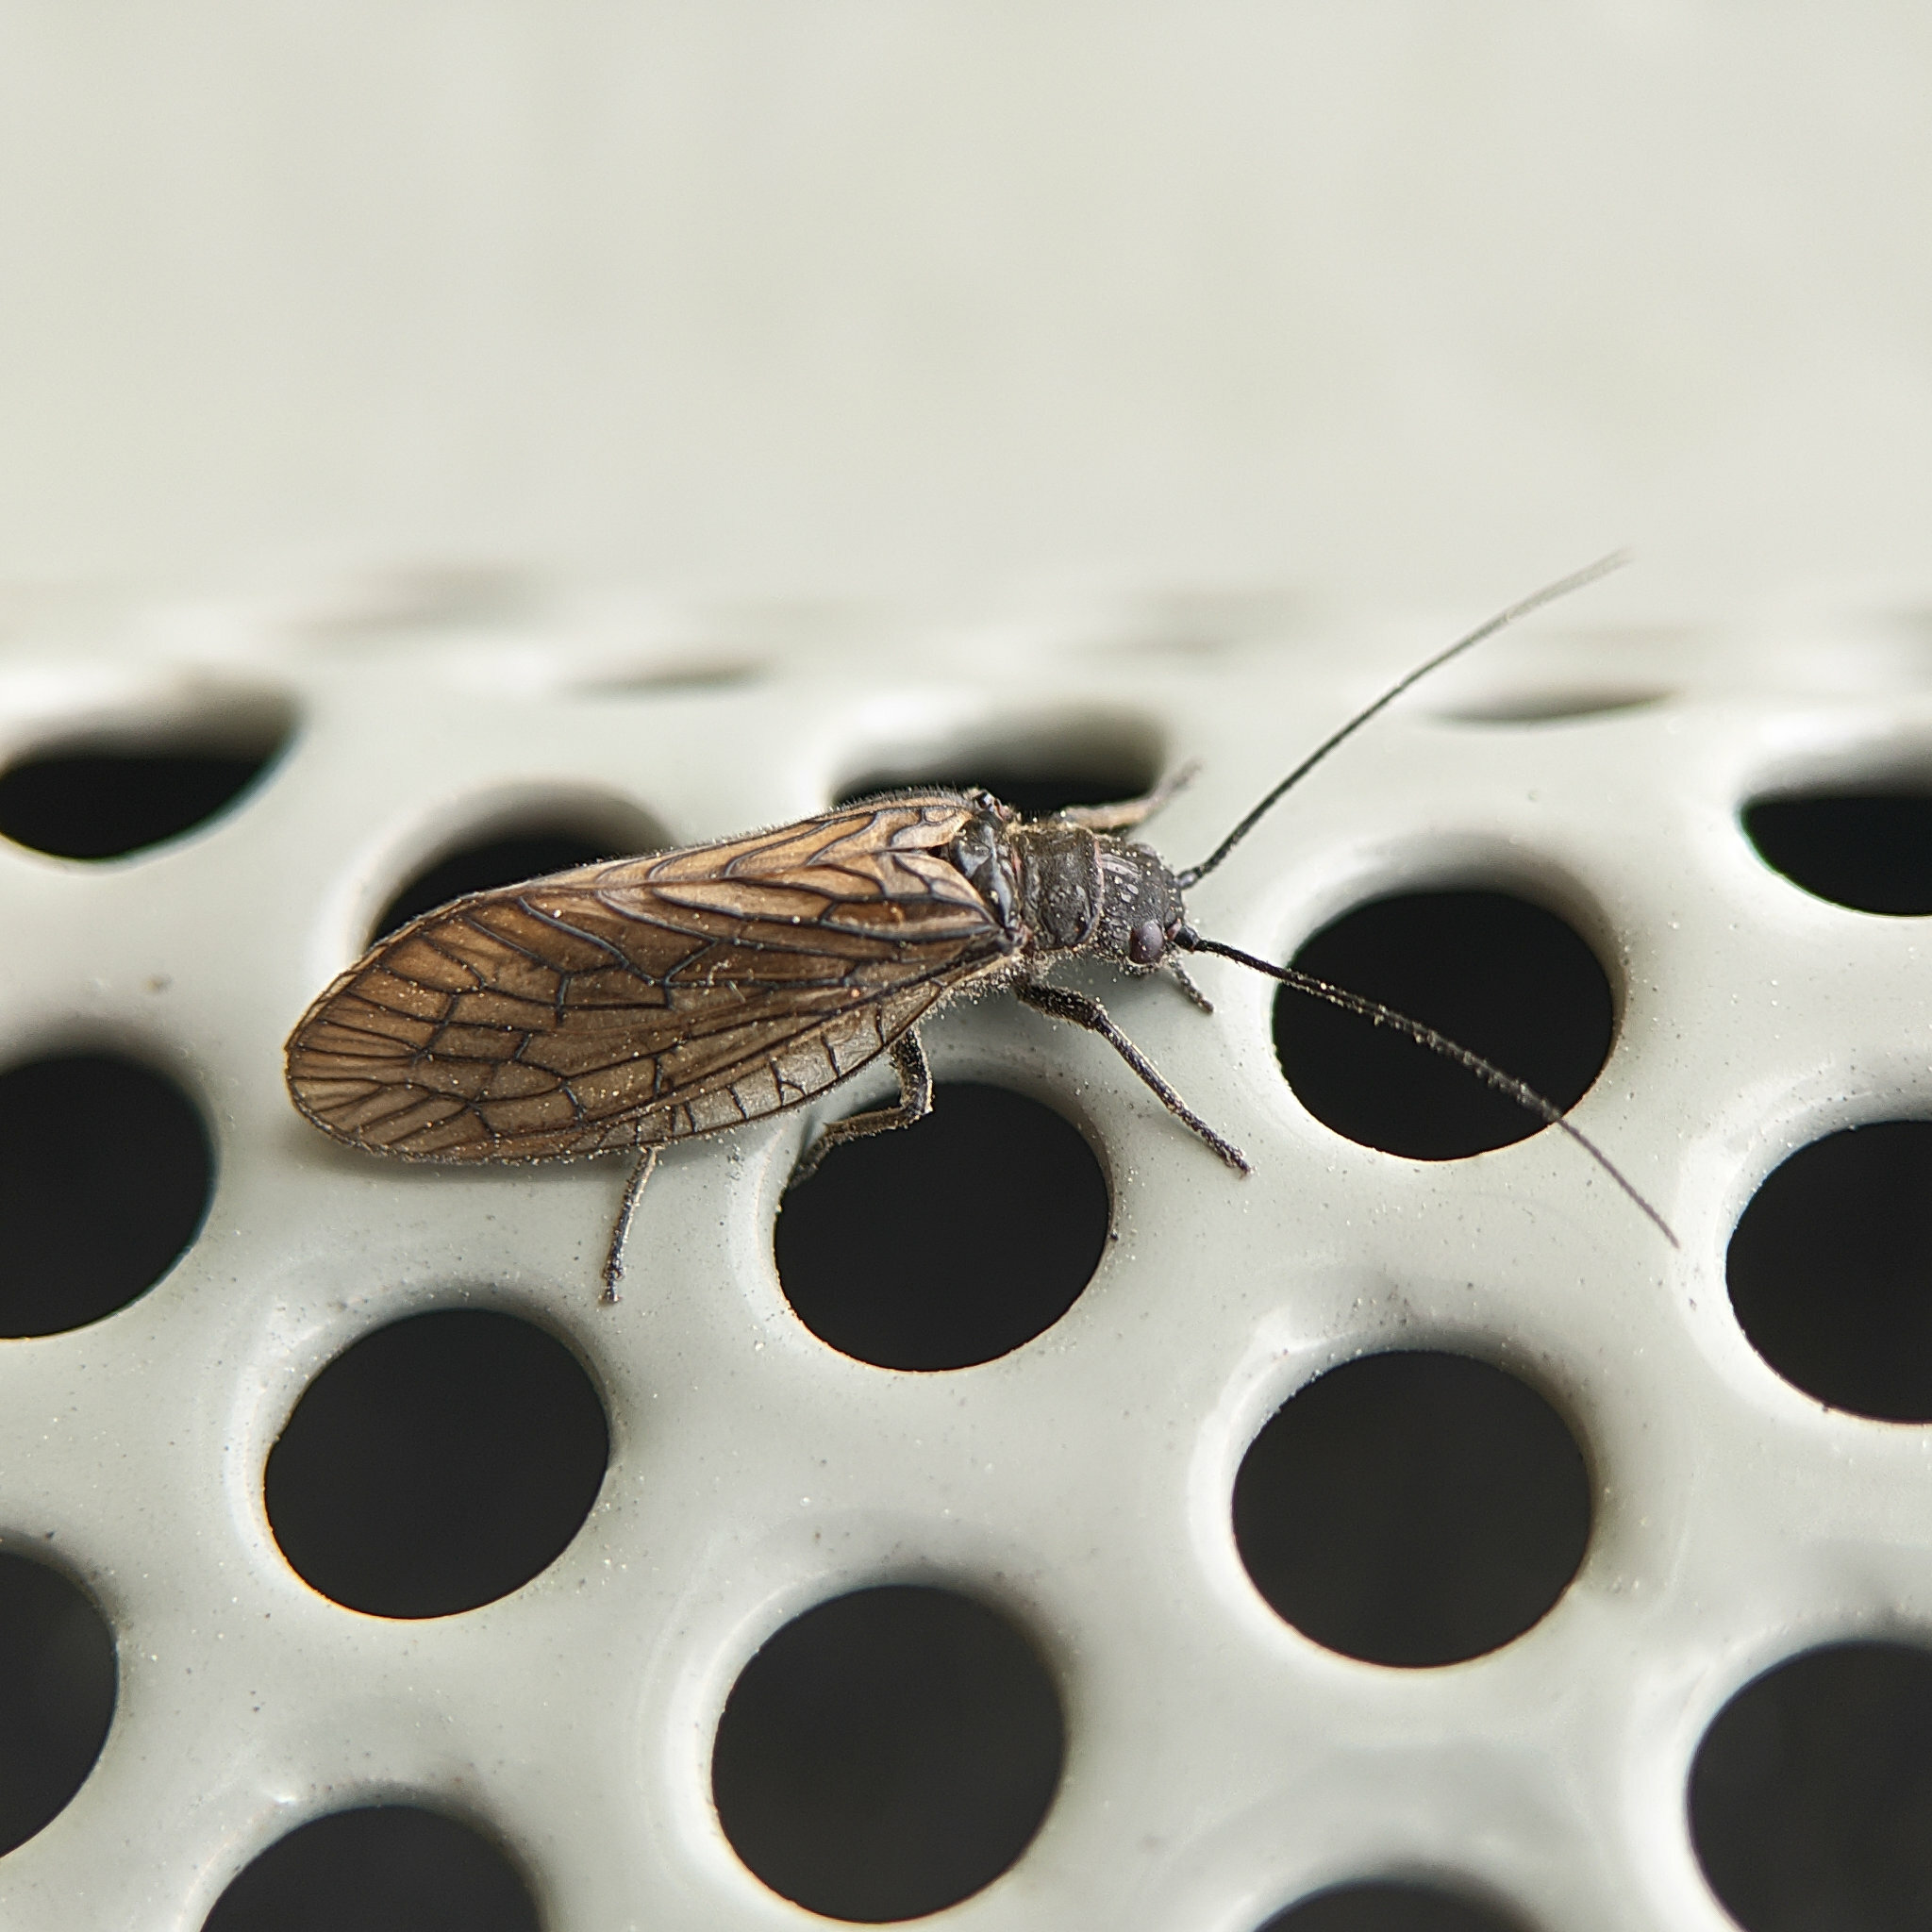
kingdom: Animalia
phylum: Arthropoda
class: Insecta
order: Megaloptera
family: Sialidae
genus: Sialis
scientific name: Sialis
